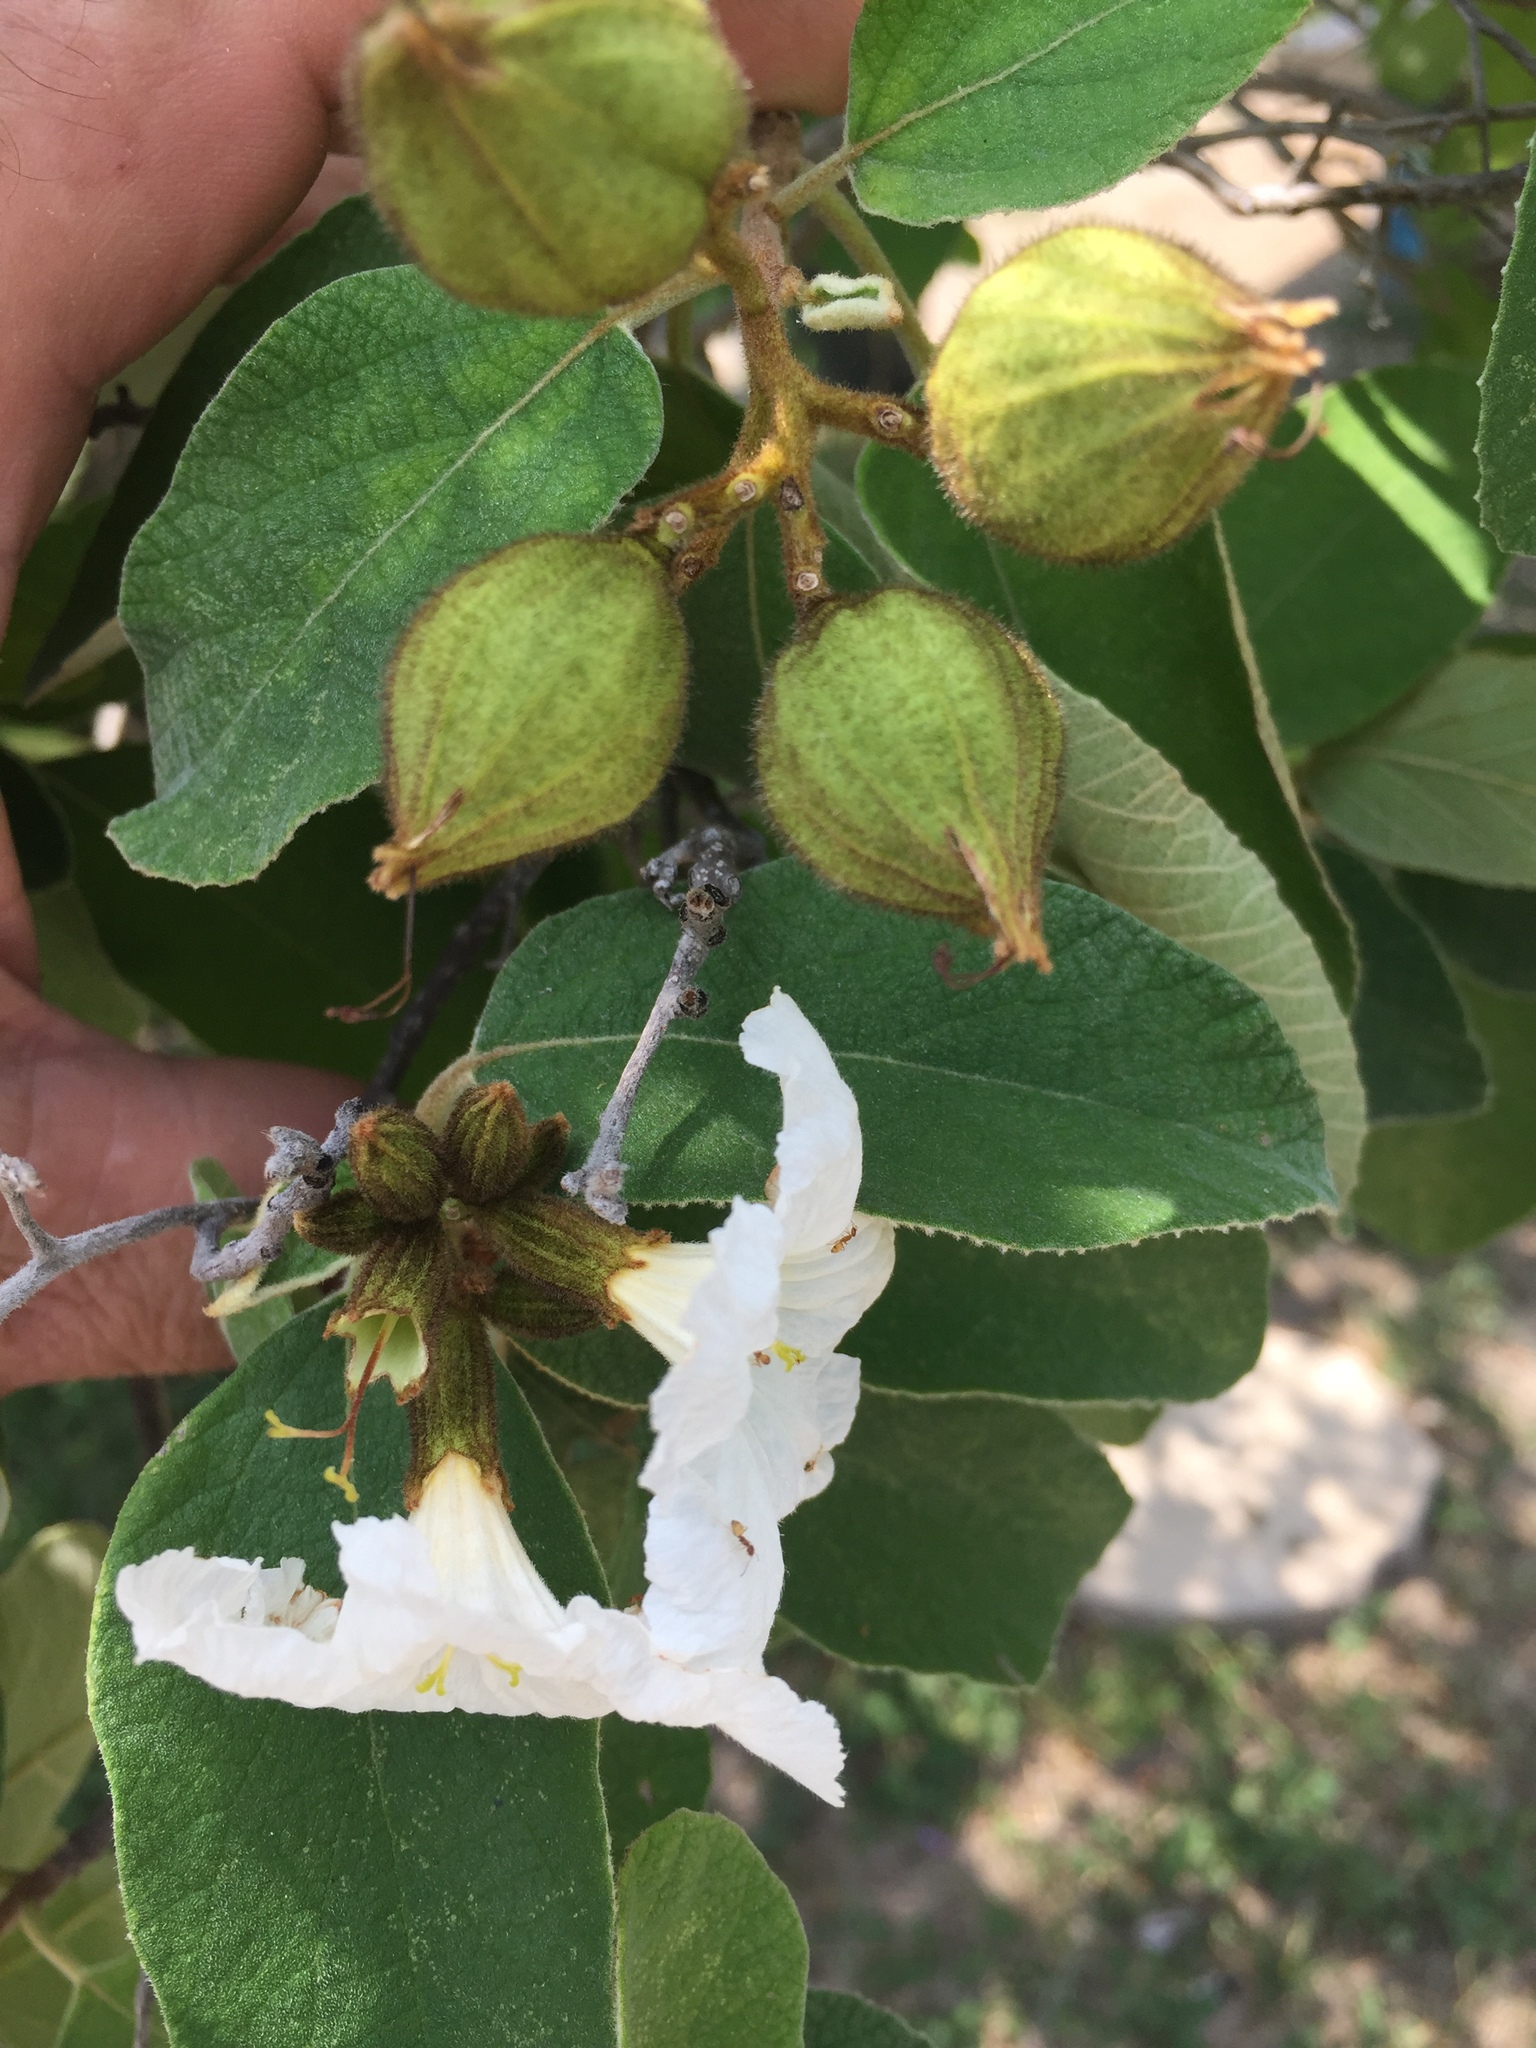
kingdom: Plantae
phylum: Tracheophyta
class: Magnoliopsida
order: Boraginales
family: Cordiaceae
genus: Cordia
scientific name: Cordia boissieri
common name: Mexican-olive
